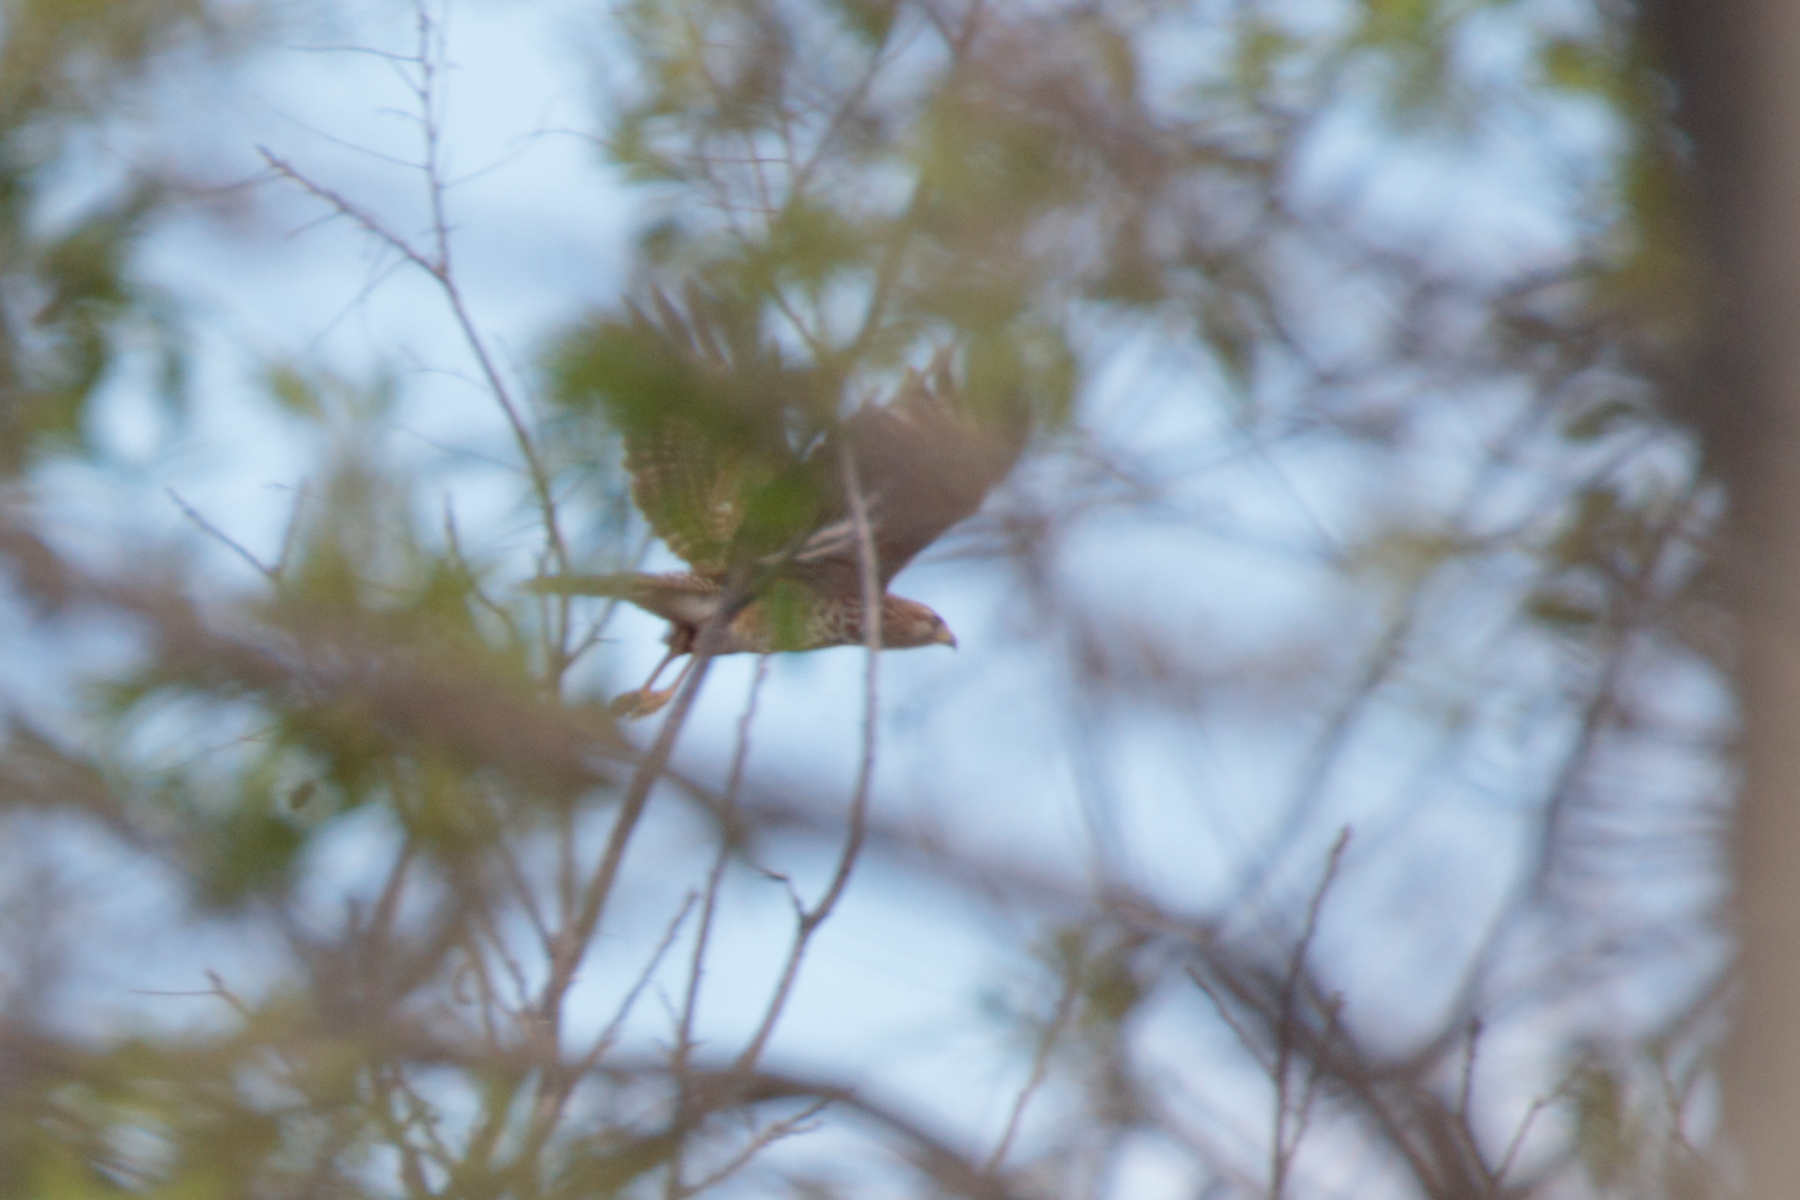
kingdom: Animalia
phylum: Chordata
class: Aves
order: Accipitriformes
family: Accipitridae
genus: Buteo
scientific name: Buteo lineatus
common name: Red-shouldered hawk
